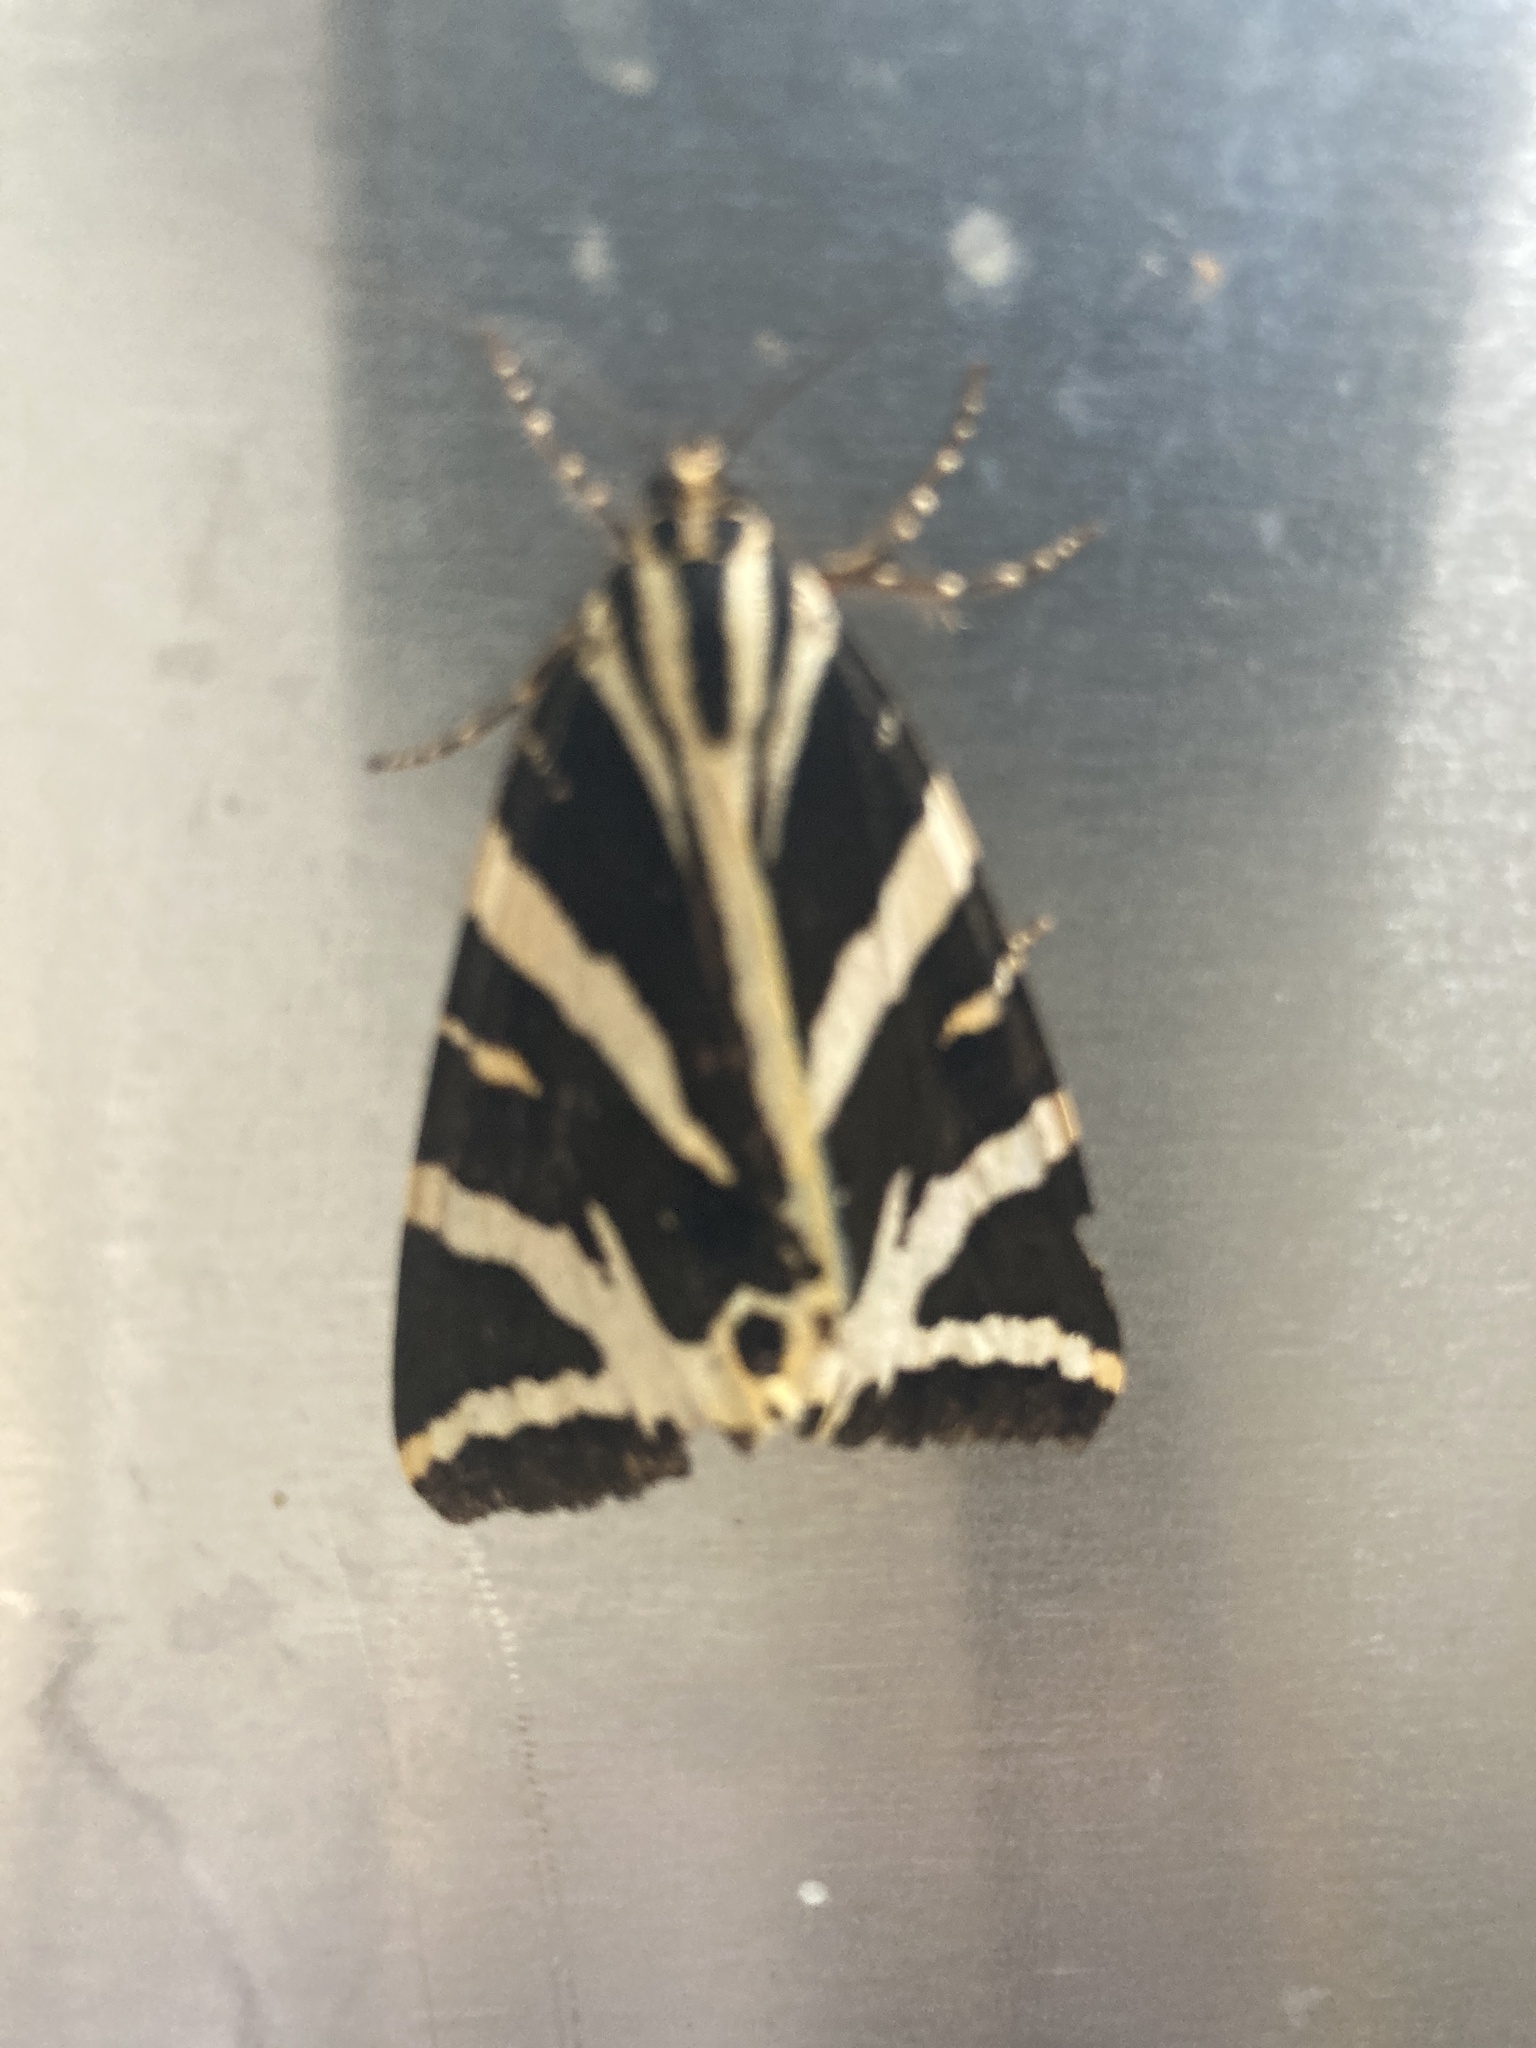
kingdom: Animalia
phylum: Arthropoda
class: Insecta
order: Lepidoptera
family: Erebidae
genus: Euplagia
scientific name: Euplagia quadripunctaria
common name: Jersey tiger
